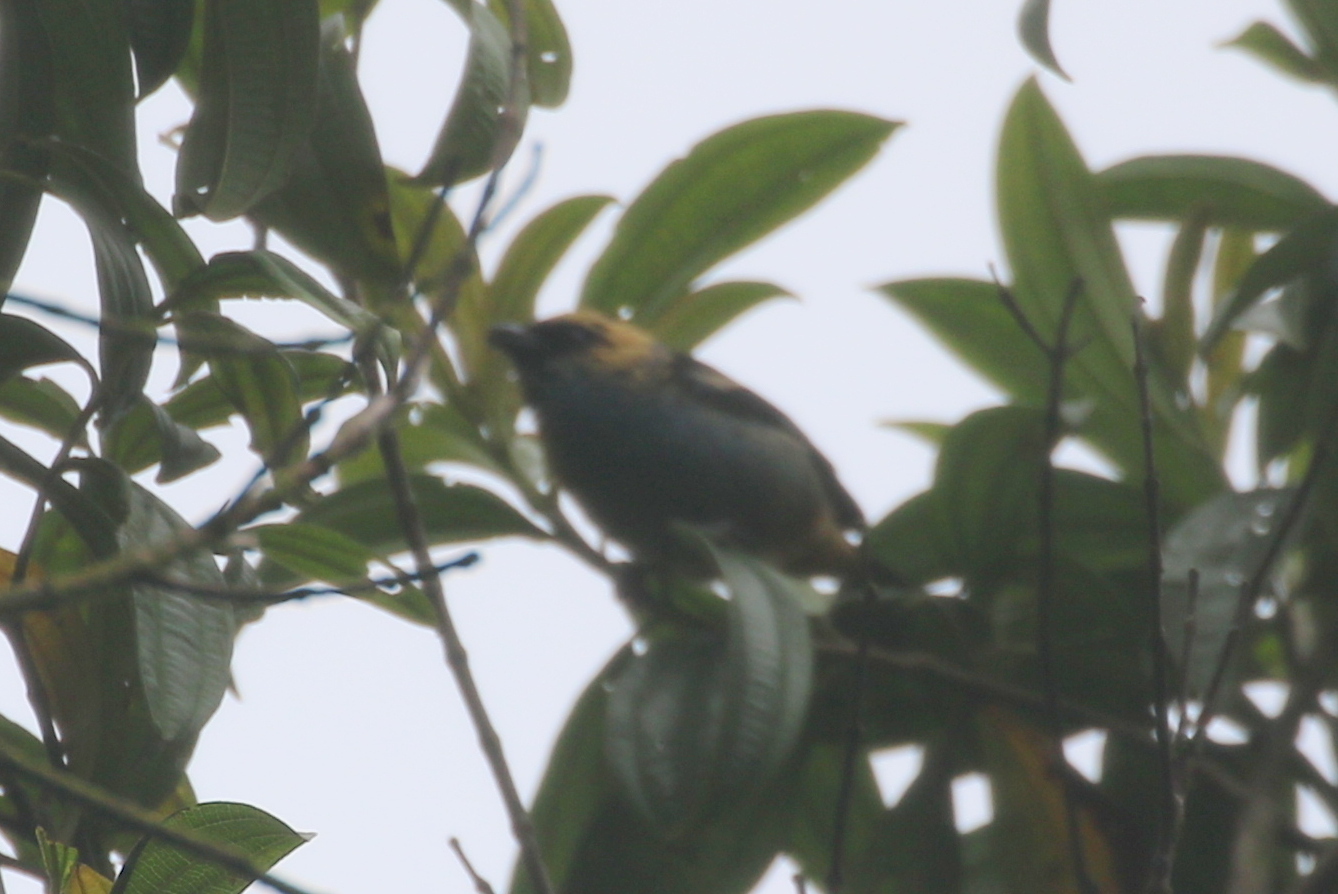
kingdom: Animalia
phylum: Chordata
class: Aves
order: Passeriformes
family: Thraupidae
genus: Tangara
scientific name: Tangara labradorides
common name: Metallic-green tanager
